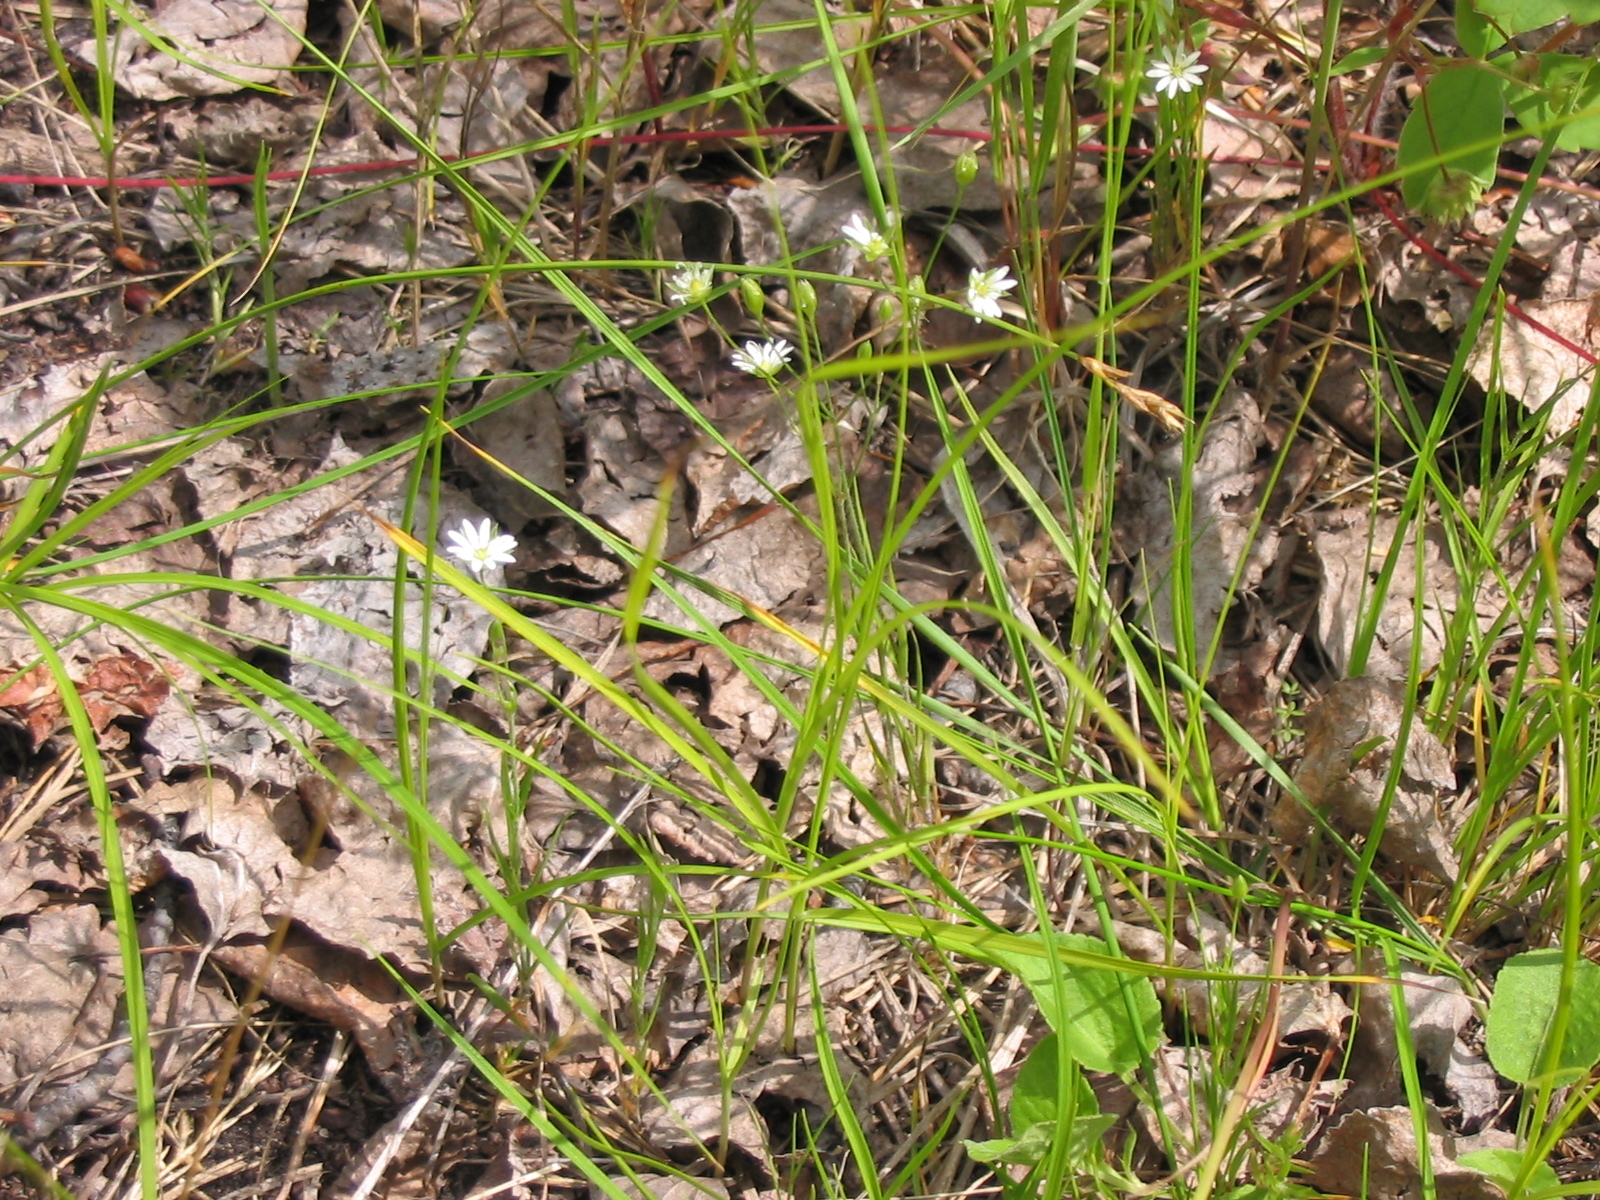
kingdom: Plantae
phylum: Tracheophyta
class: Magnoliopsida
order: Caryophyllales
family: Caryophyllaceae
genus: Cerastium
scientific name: Cerastium arvense
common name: Field mouse-ear
